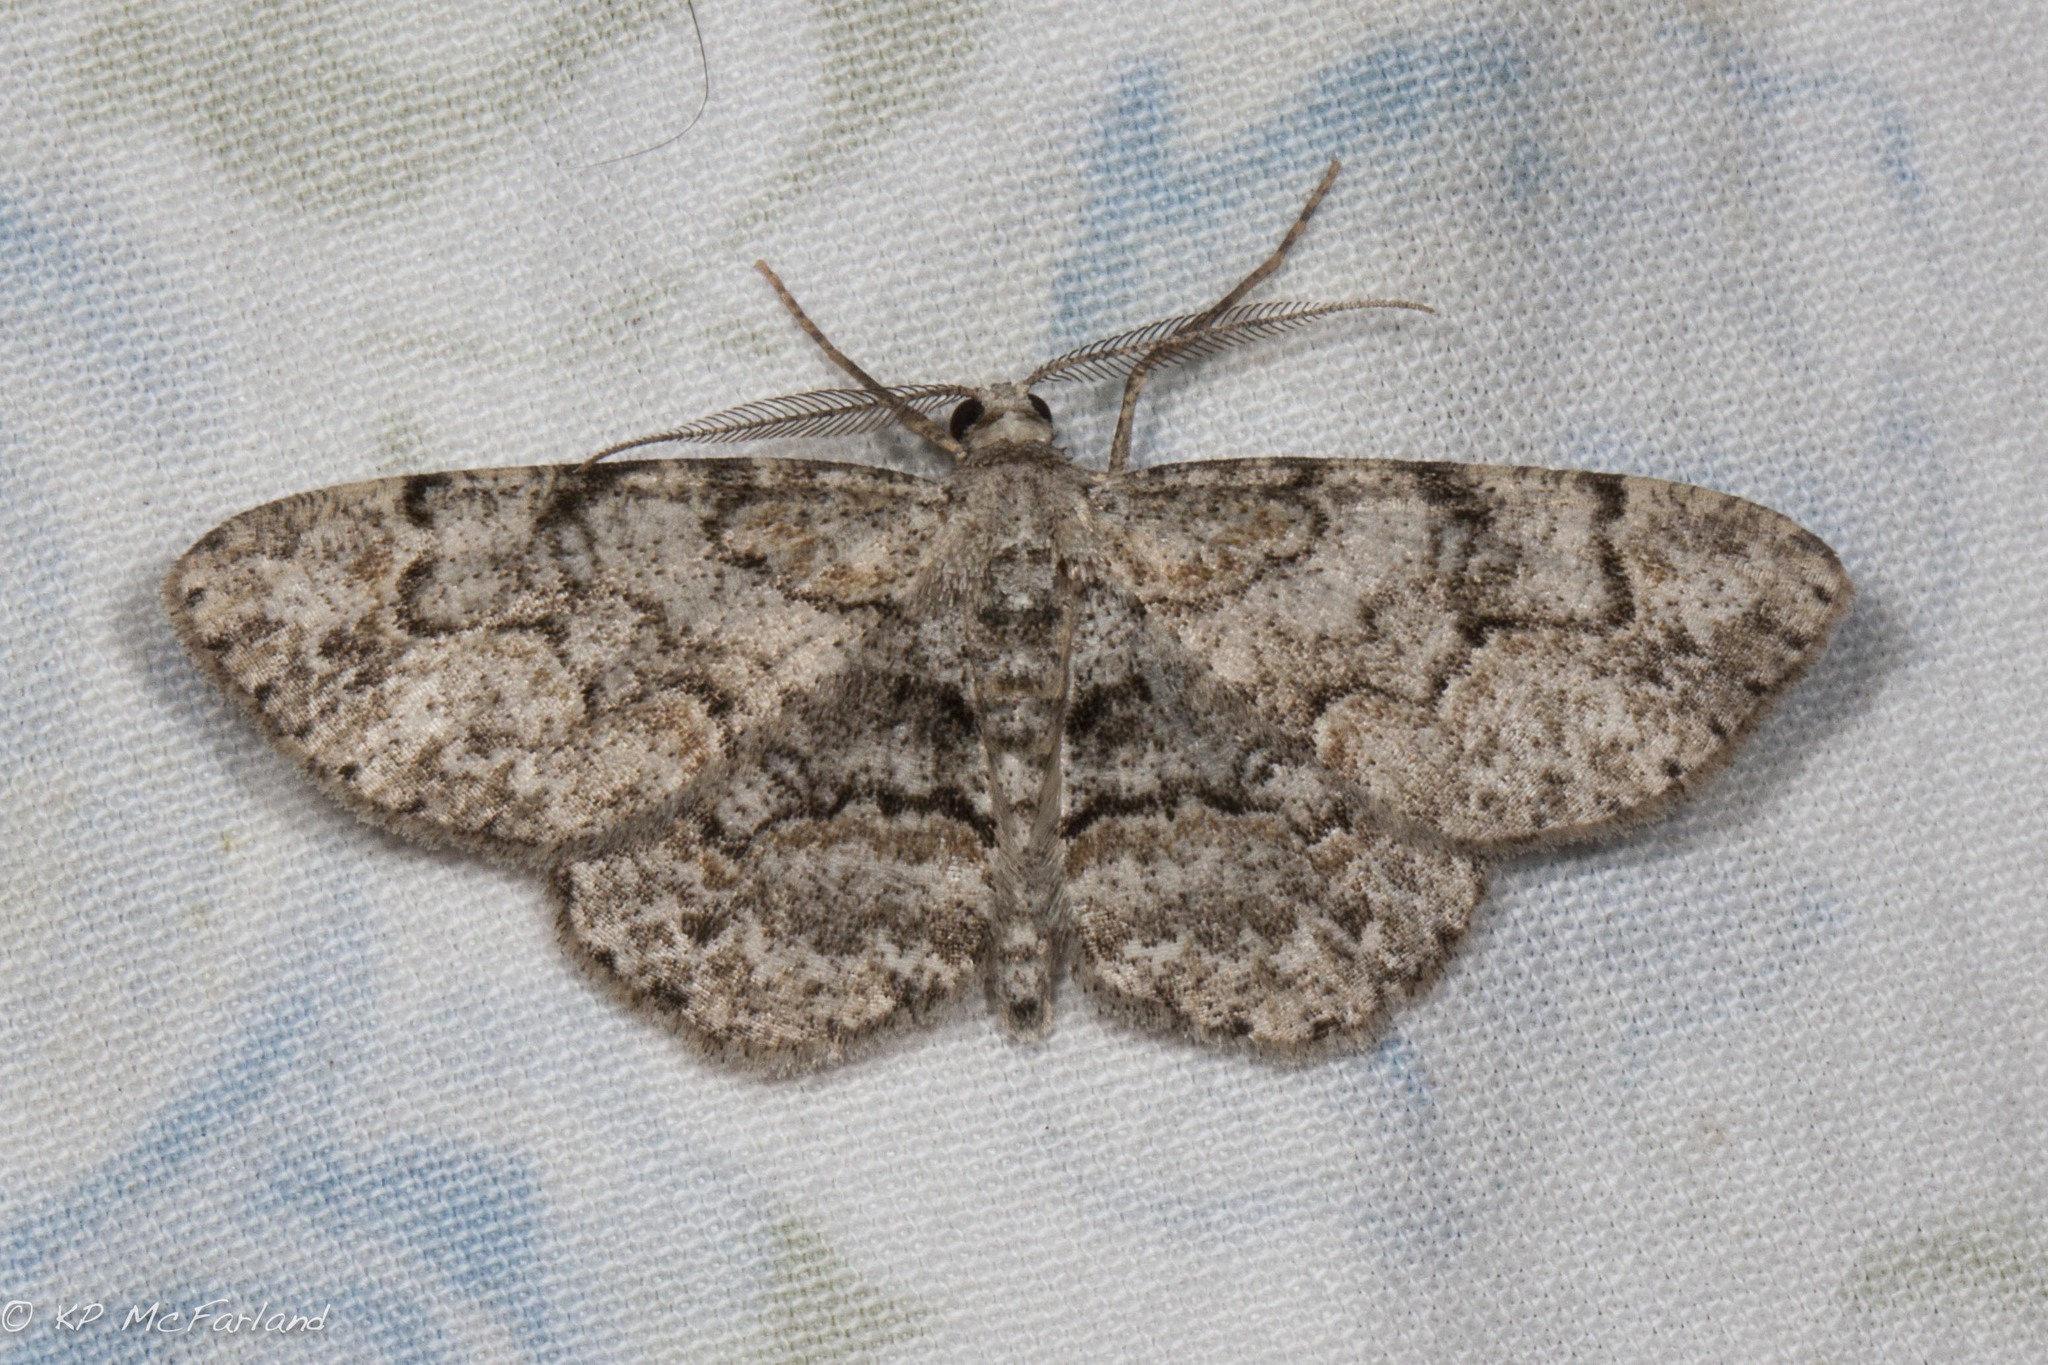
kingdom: Animalia
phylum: Arthropoda
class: Insecta
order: Lepidoptera
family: Geometridae
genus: Iridopsis
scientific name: Iridopsis ephyraria
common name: Pale-winged gray
